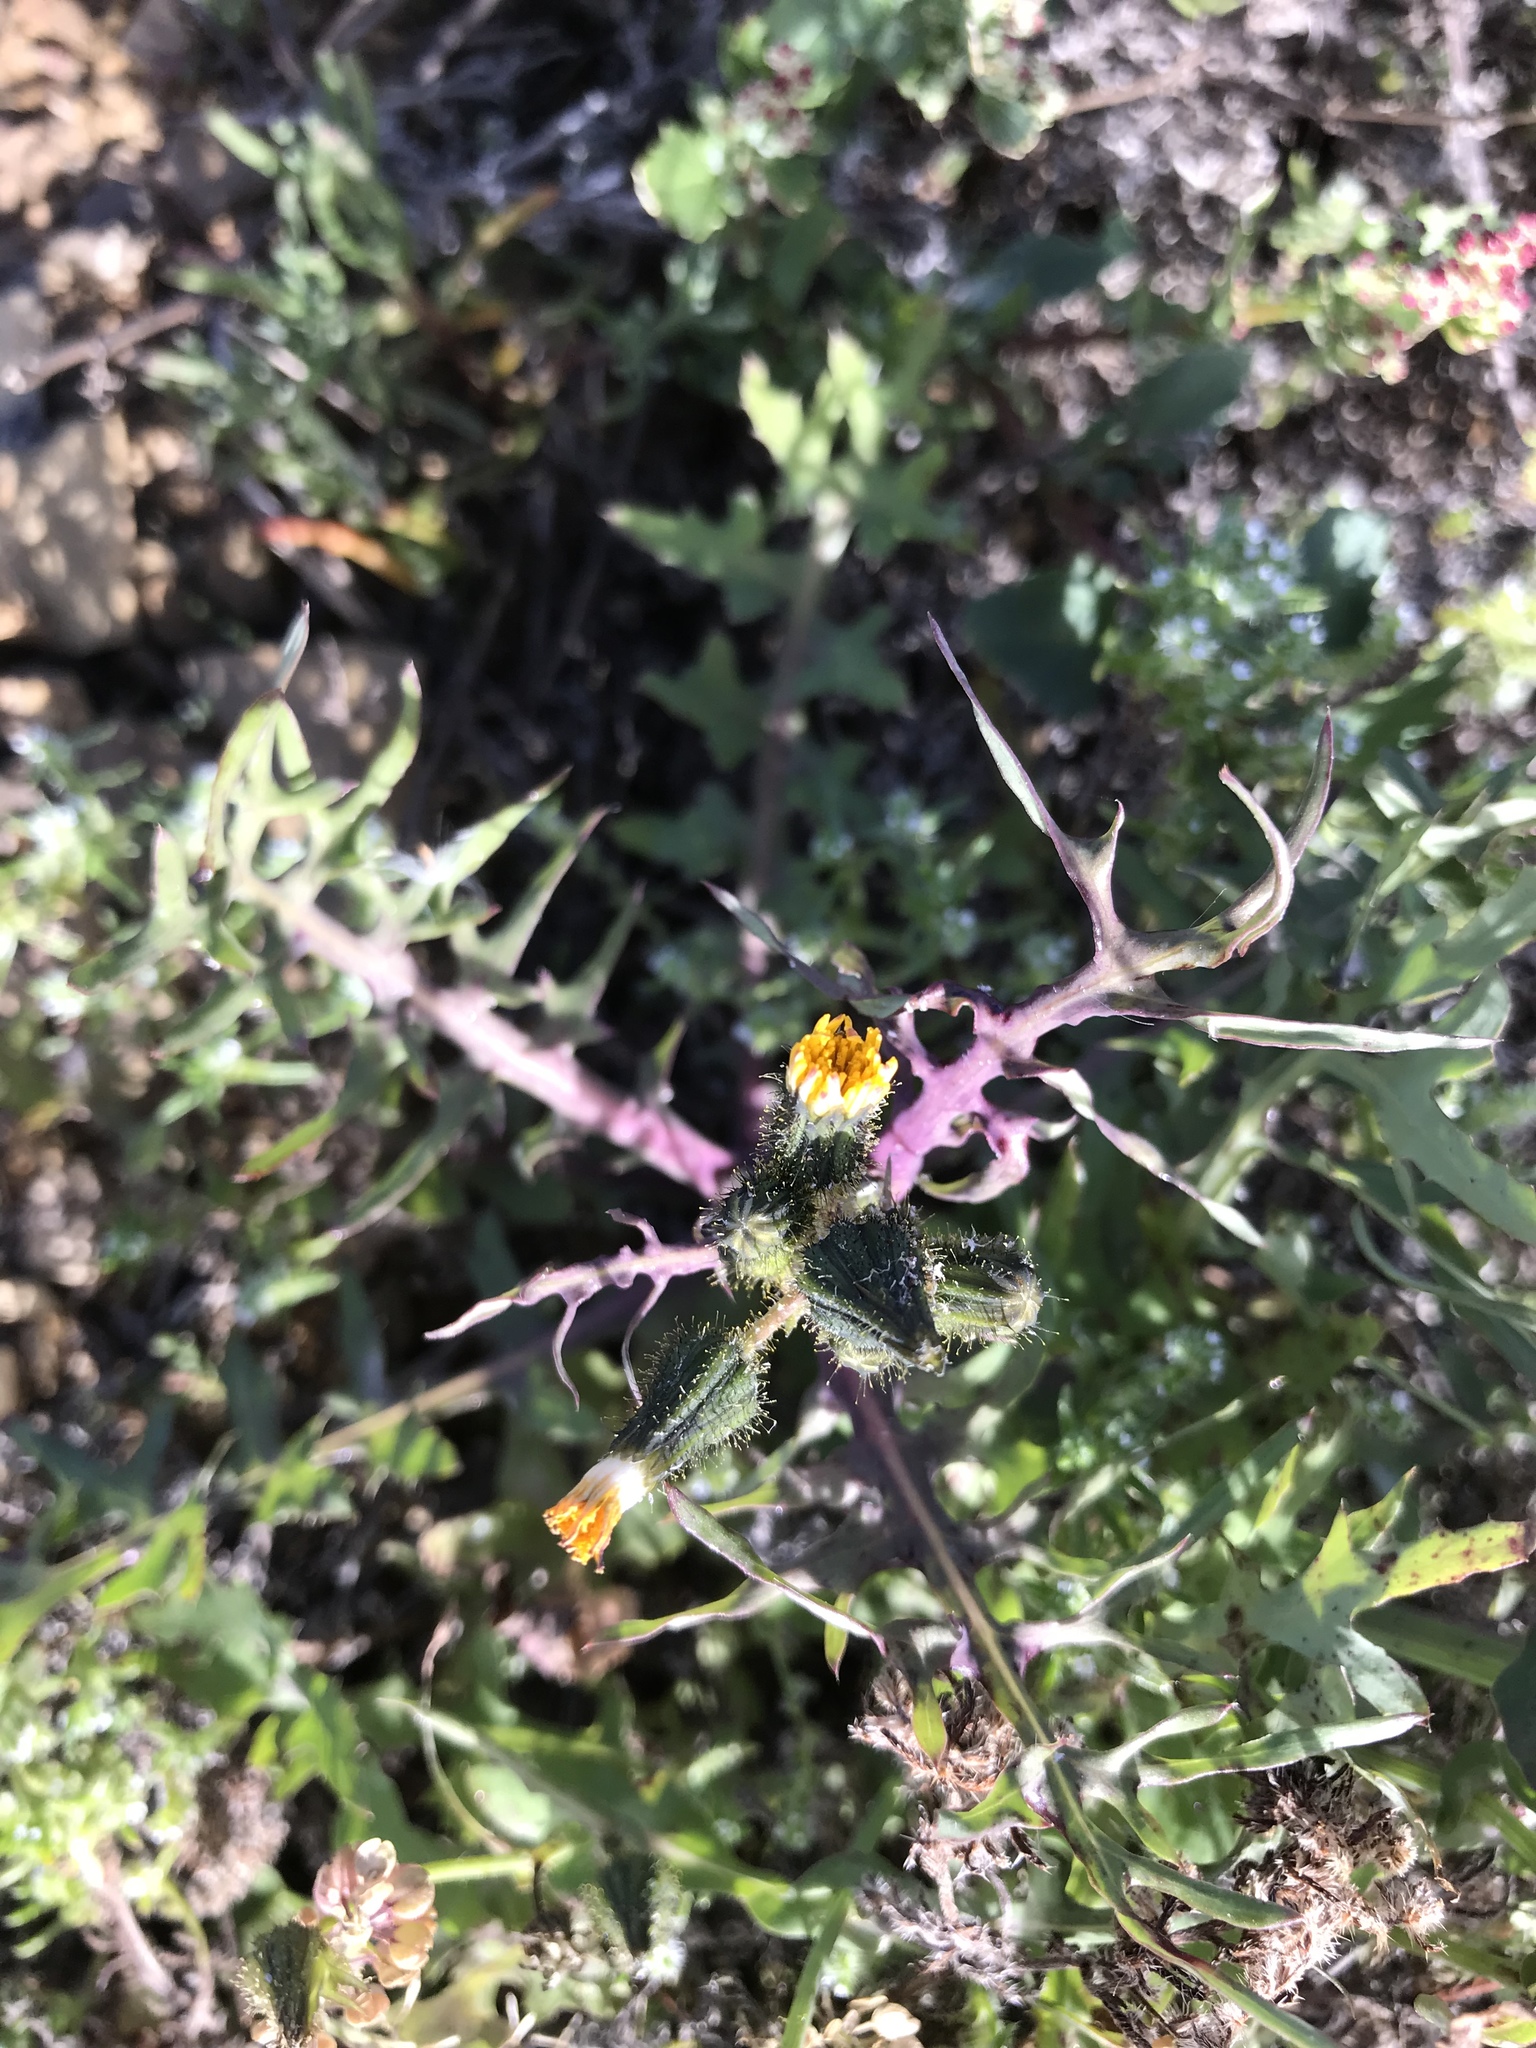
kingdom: Plantae
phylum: Tracheophyta
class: Magnoliopsida
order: Asterales
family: Asteraceae
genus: Sonchus
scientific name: Sonchus tenerrimus
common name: Clammy sowthistle
